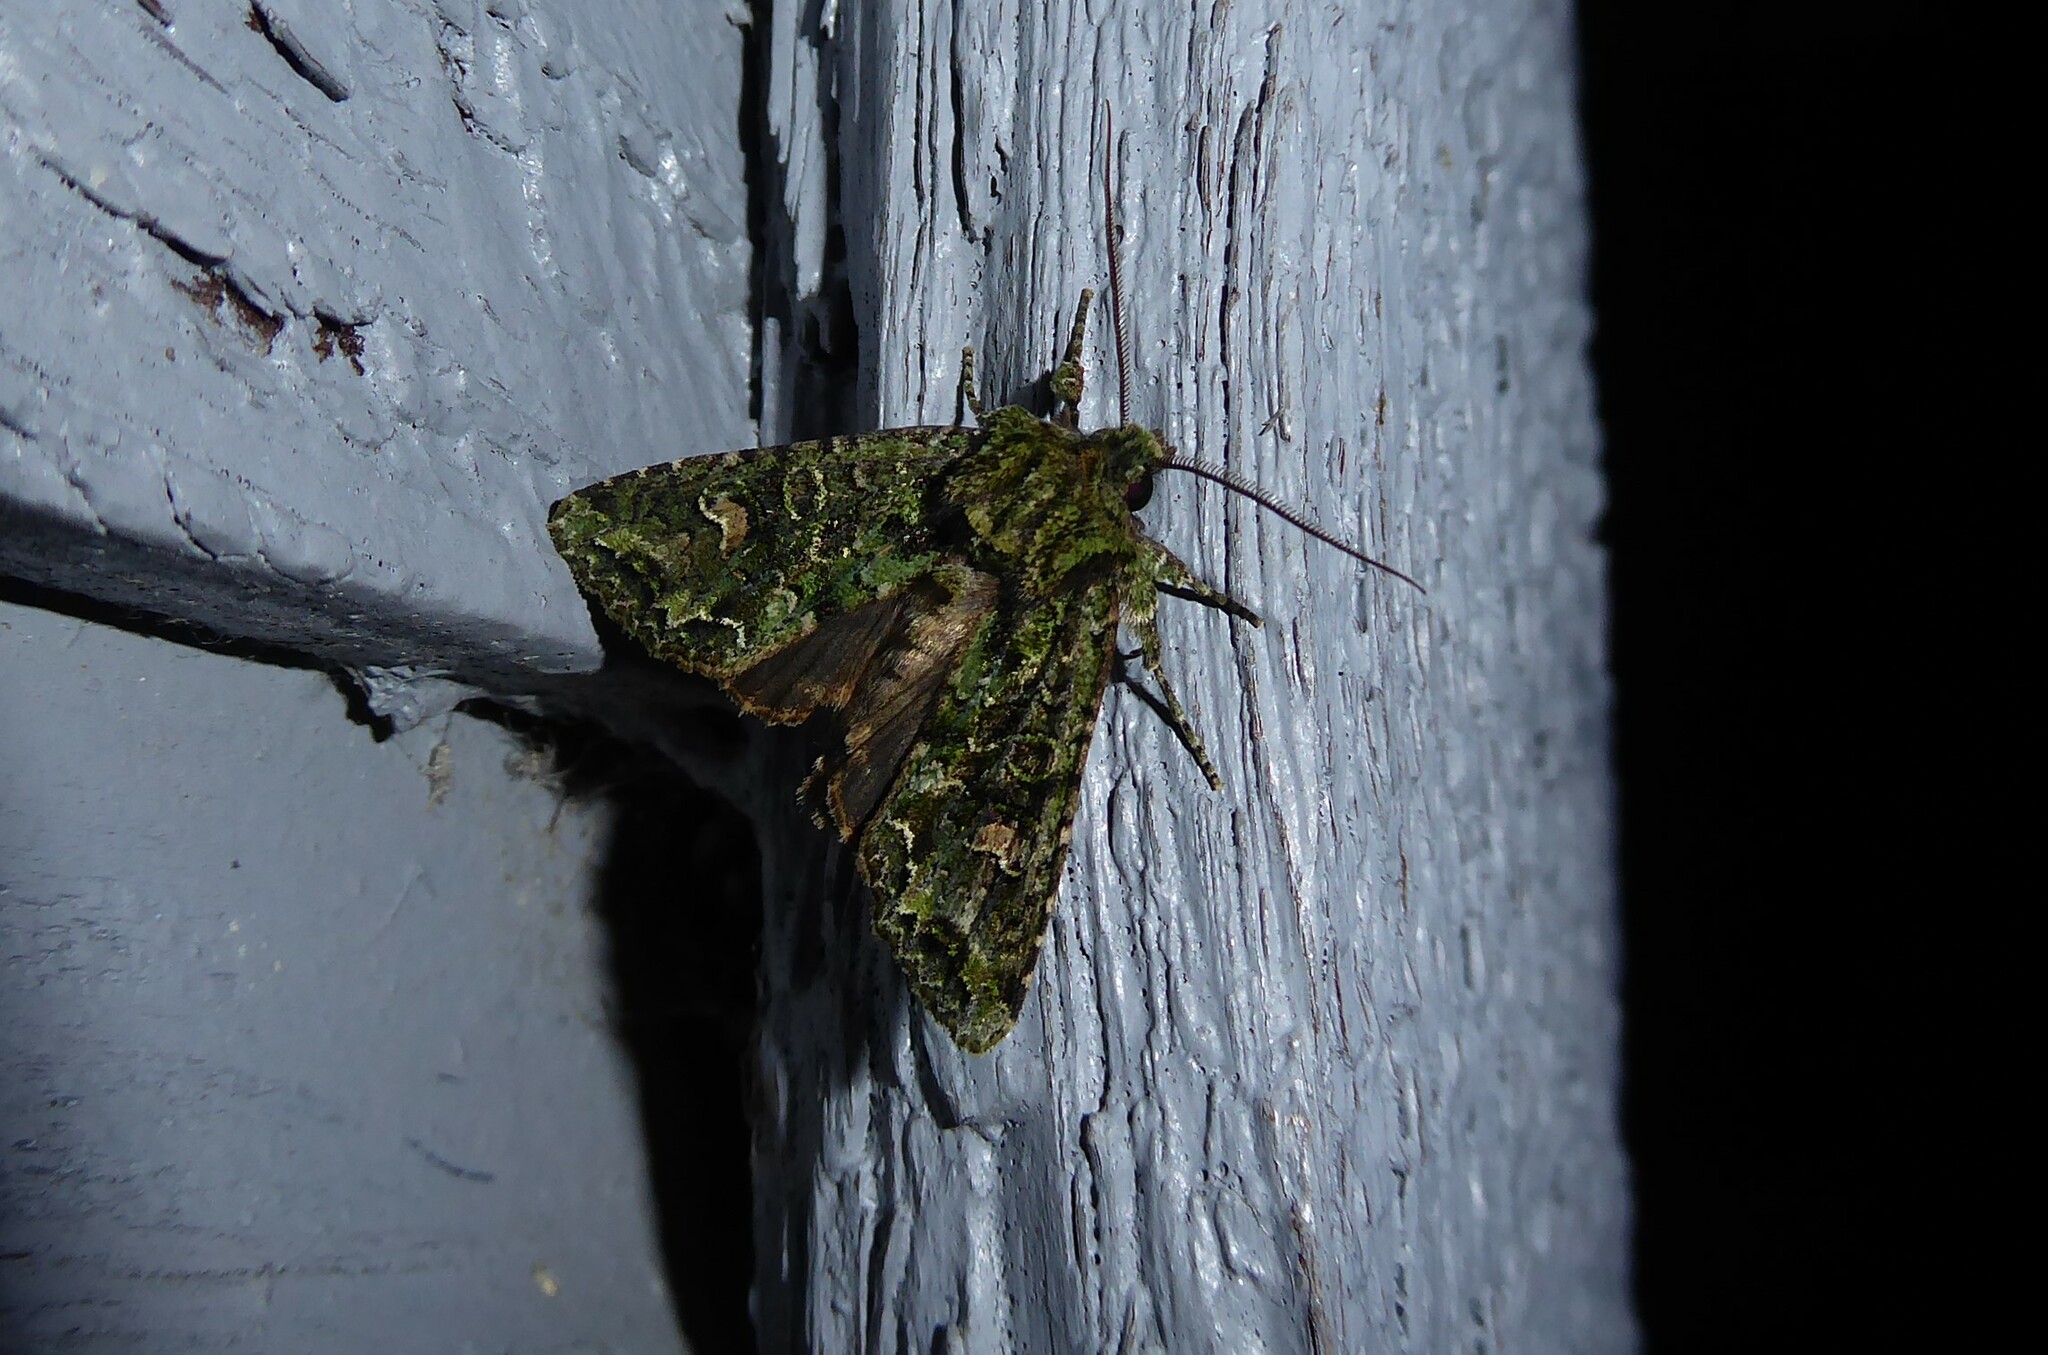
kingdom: Animalia
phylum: Arthropoda
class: Insecta
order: Lepidoptera
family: Noctuidae
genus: Ichneutica
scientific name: Ichneutica
